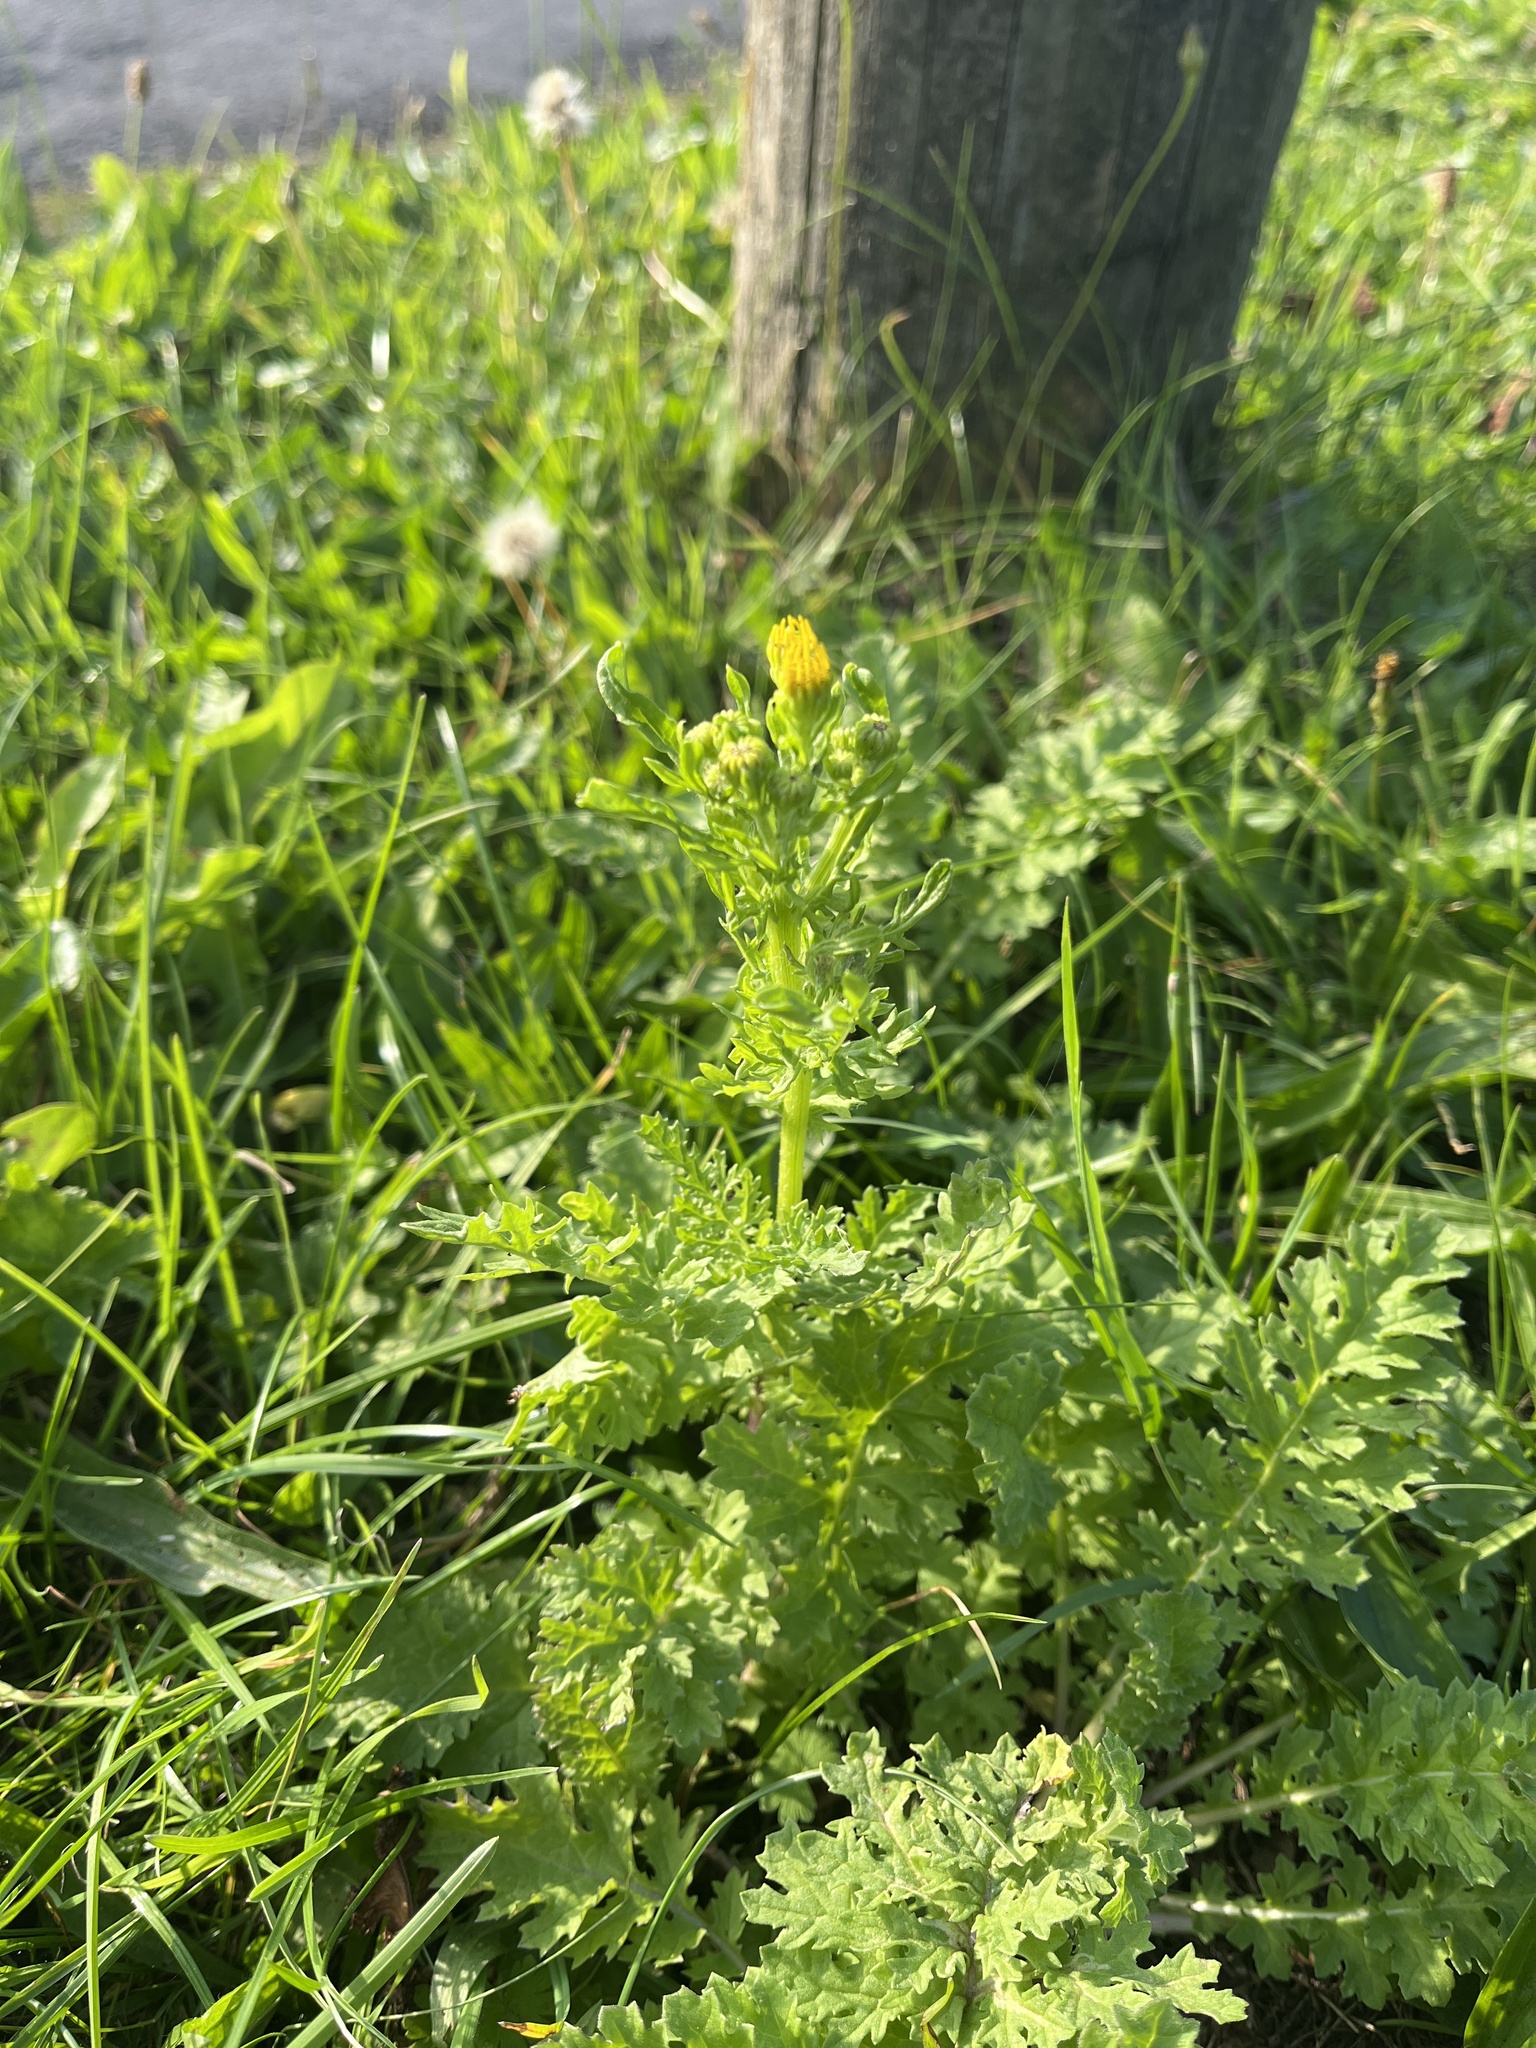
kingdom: Plantae
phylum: Tracheophyta
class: Magnoliopsida
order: Asterales
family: Asteraceae
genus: Jacobaea
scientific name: Jacobaea vulgaris
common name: Stinking willie
